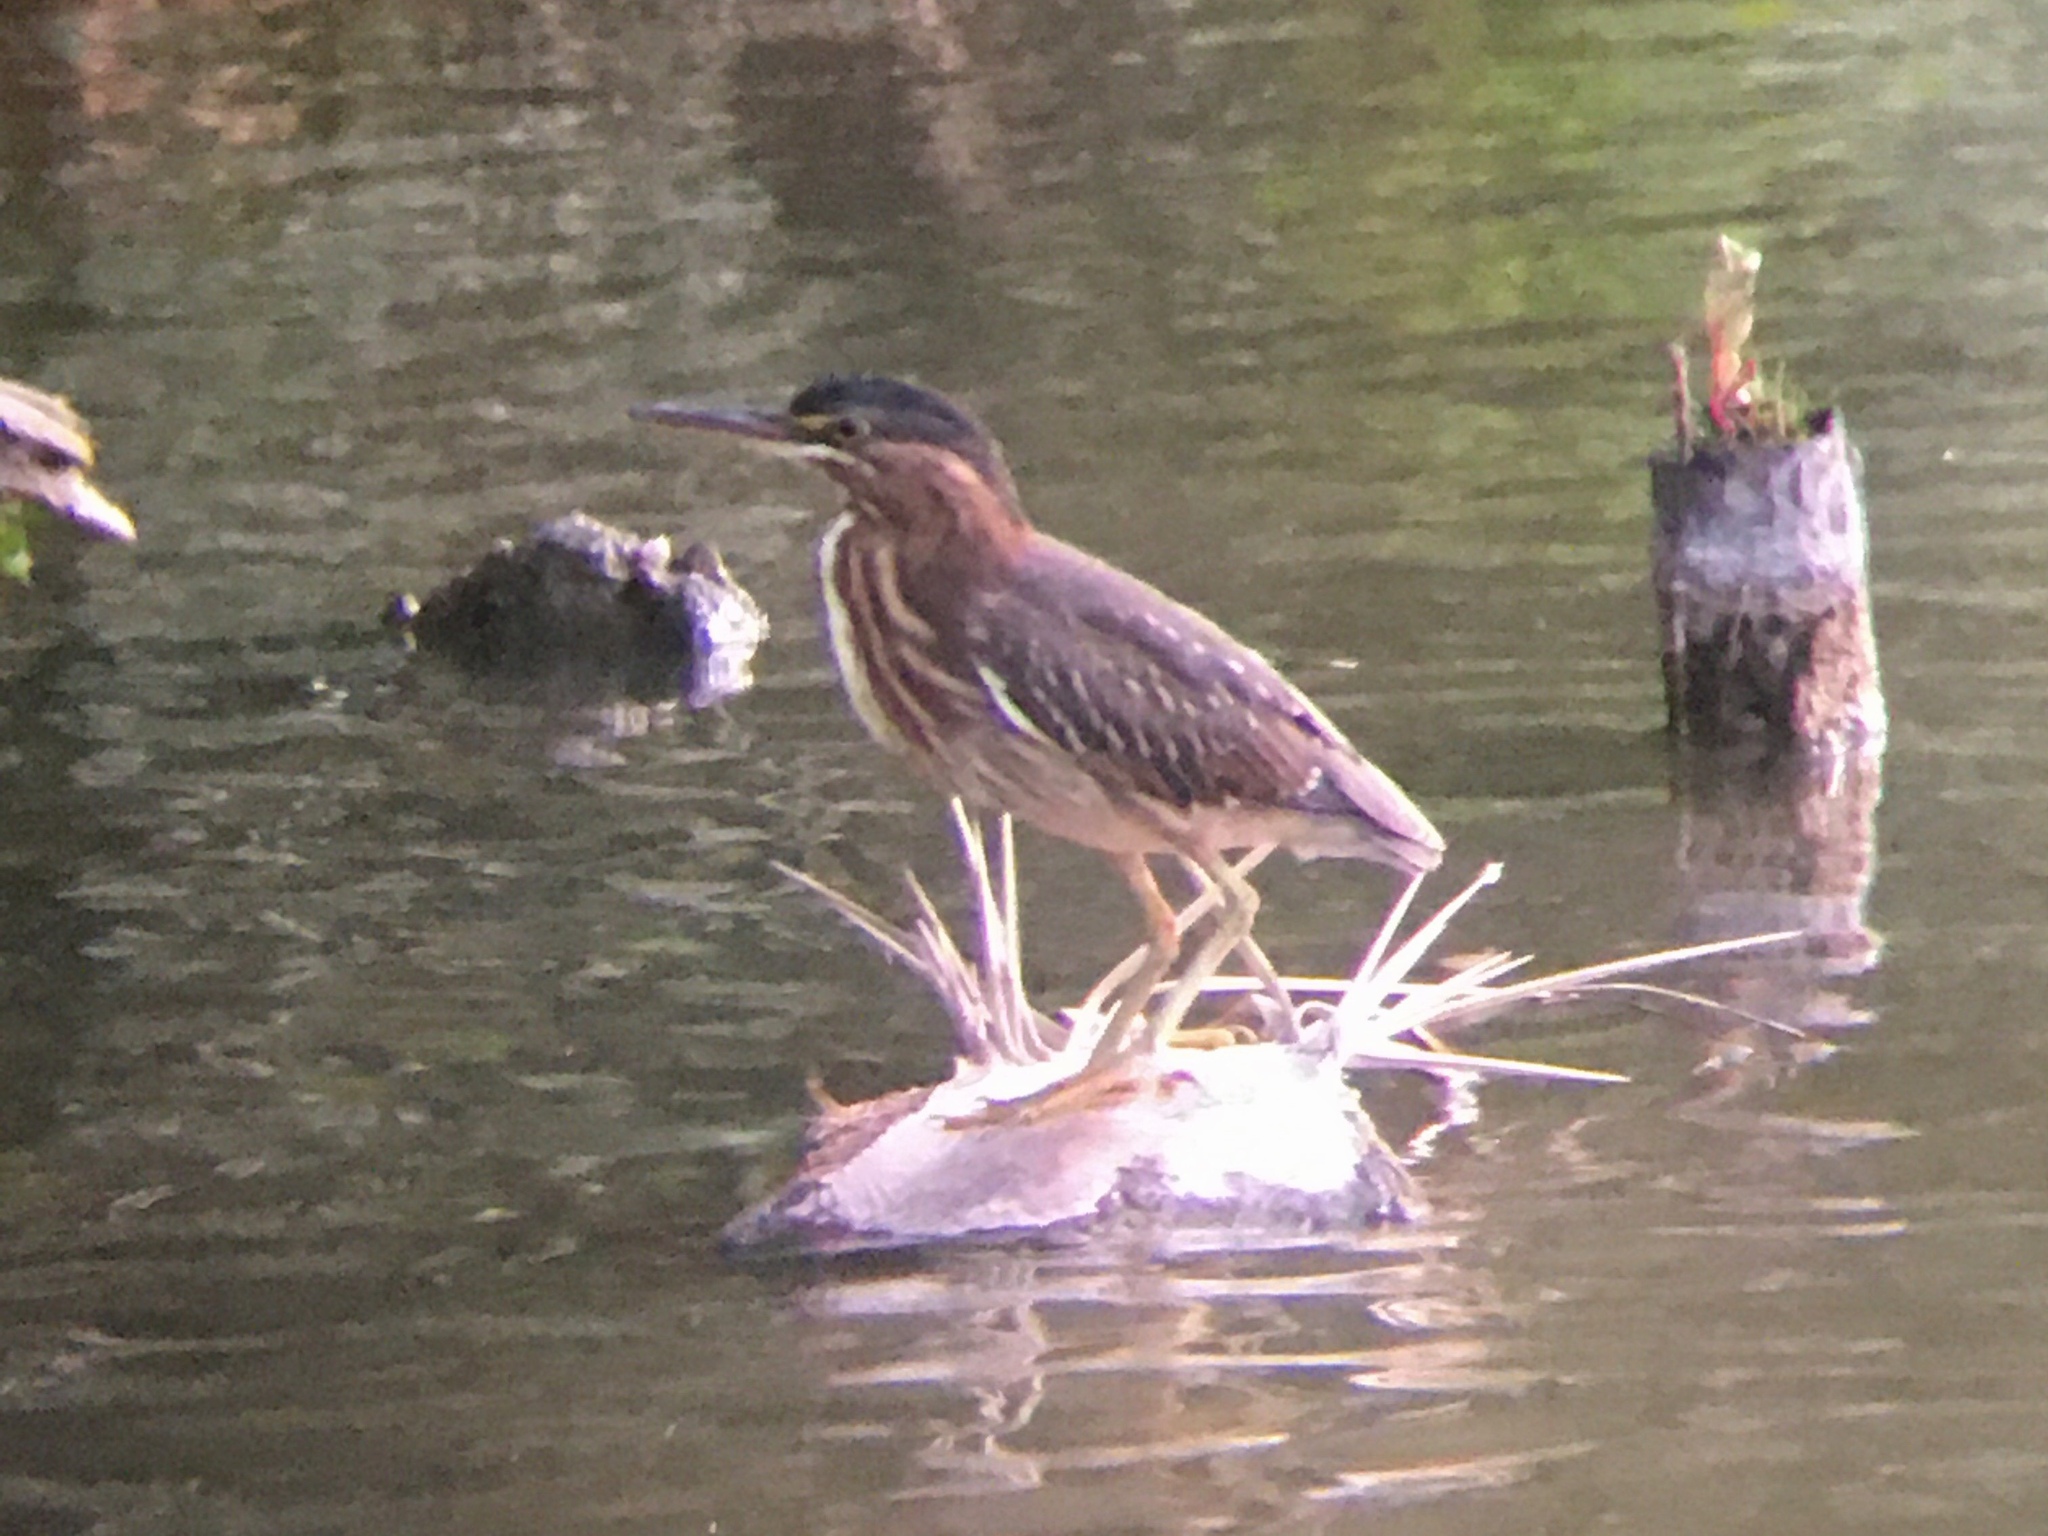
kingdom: Animalia
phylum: Chordata
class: Aves
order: Pelecaniformes
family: Ardeidae
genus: Butorides
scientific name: Butorides striata
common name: Striated heron
